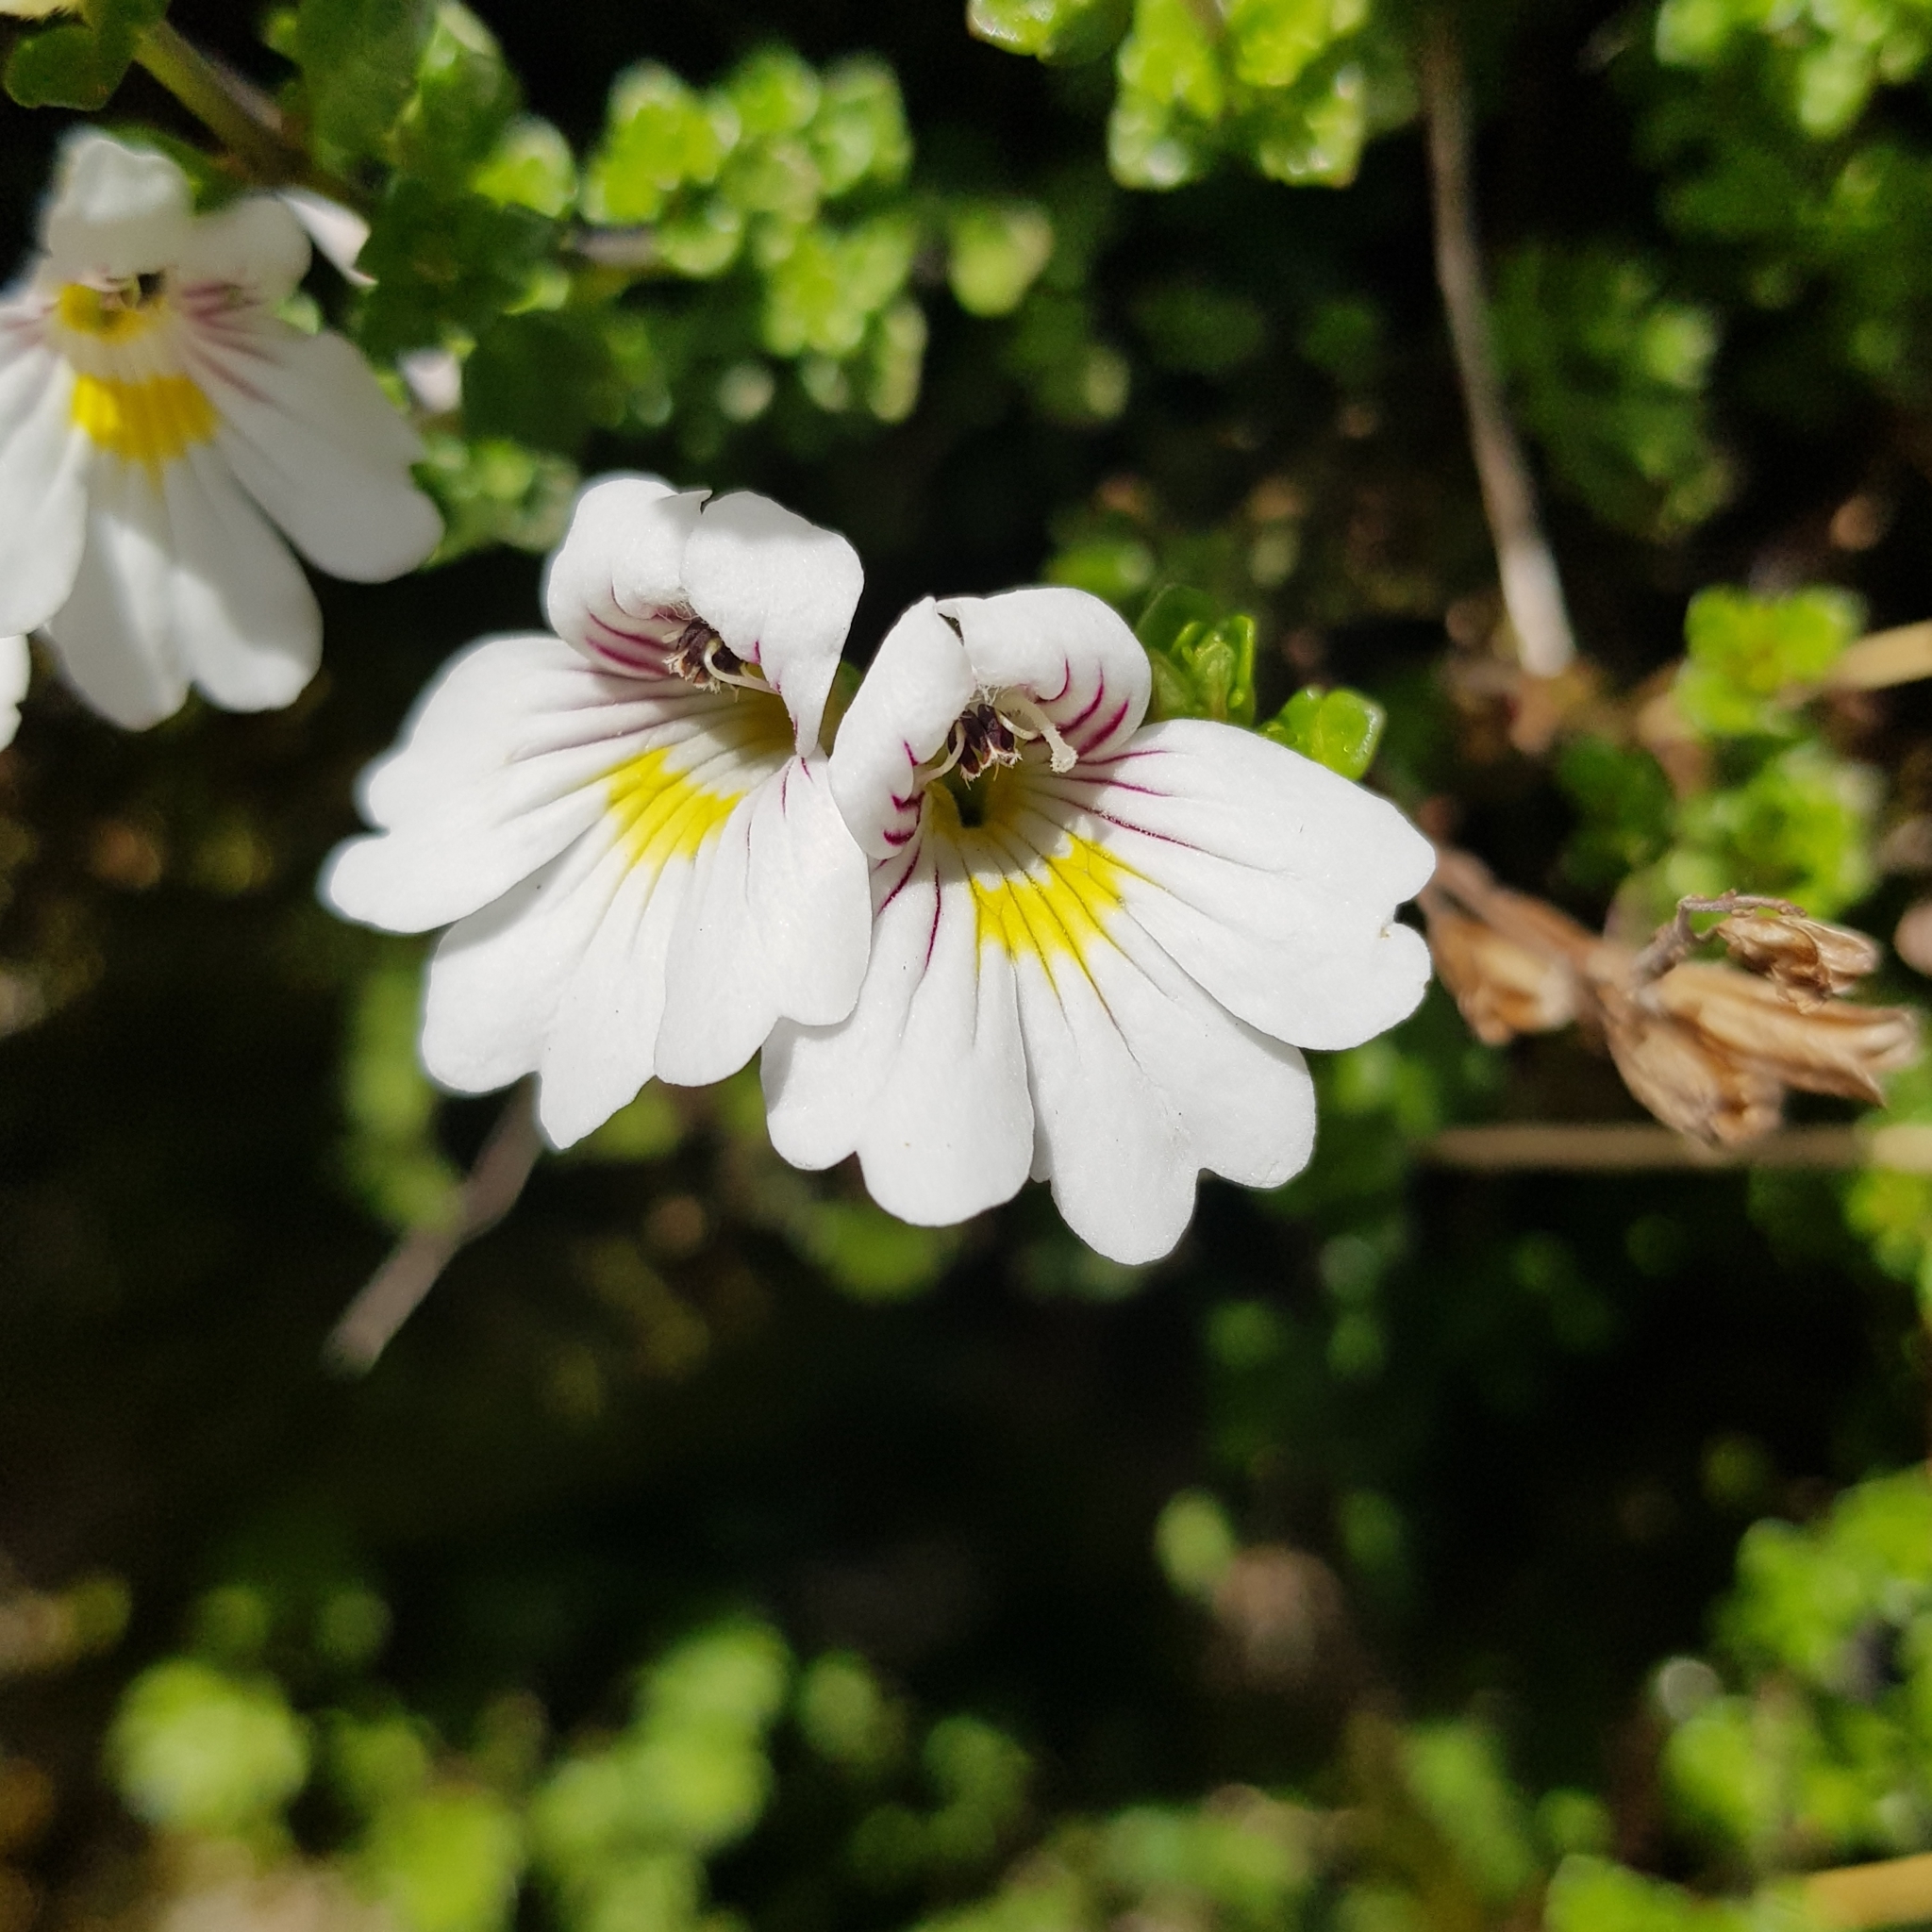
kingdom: Plantae
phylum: Tracheophyta
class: Magnoliopsida
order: Lamiales
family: Orobanchaceae
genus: Euphrasia
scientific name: Euphrasia cuneata
